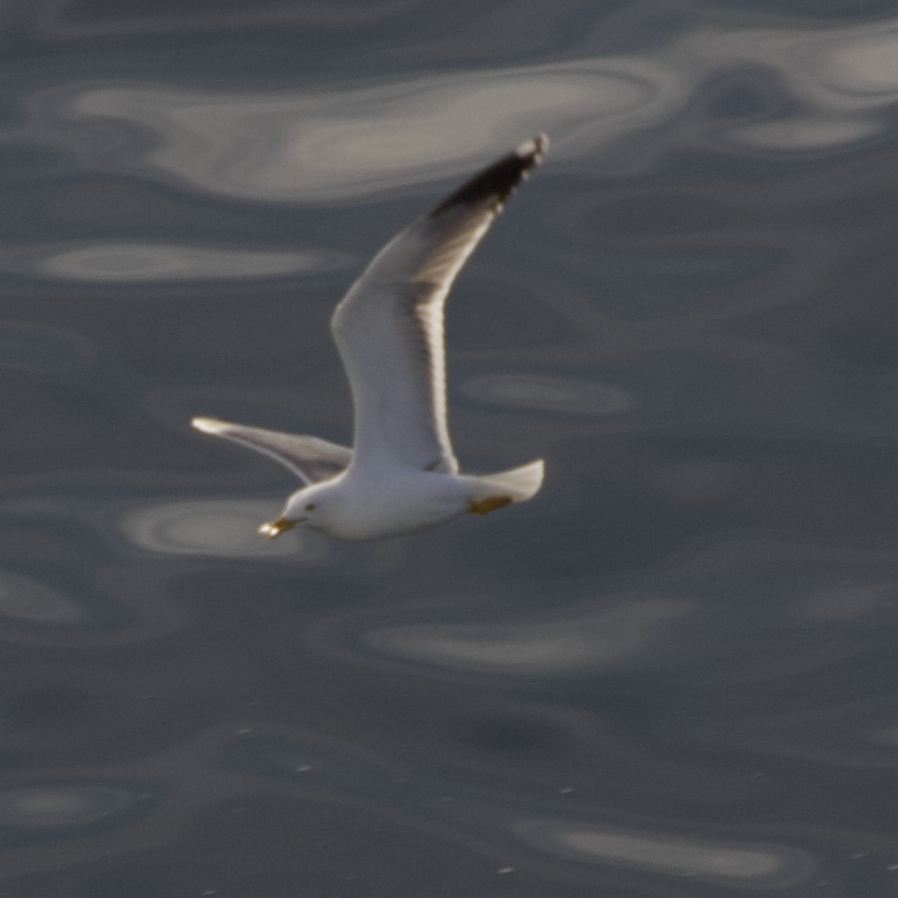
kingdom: Animalia
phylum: Chordata
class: Aves
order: Charadriiformes
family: Laridae
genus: Larus
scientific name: Larus michahellis
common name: Yellow-legged gull
